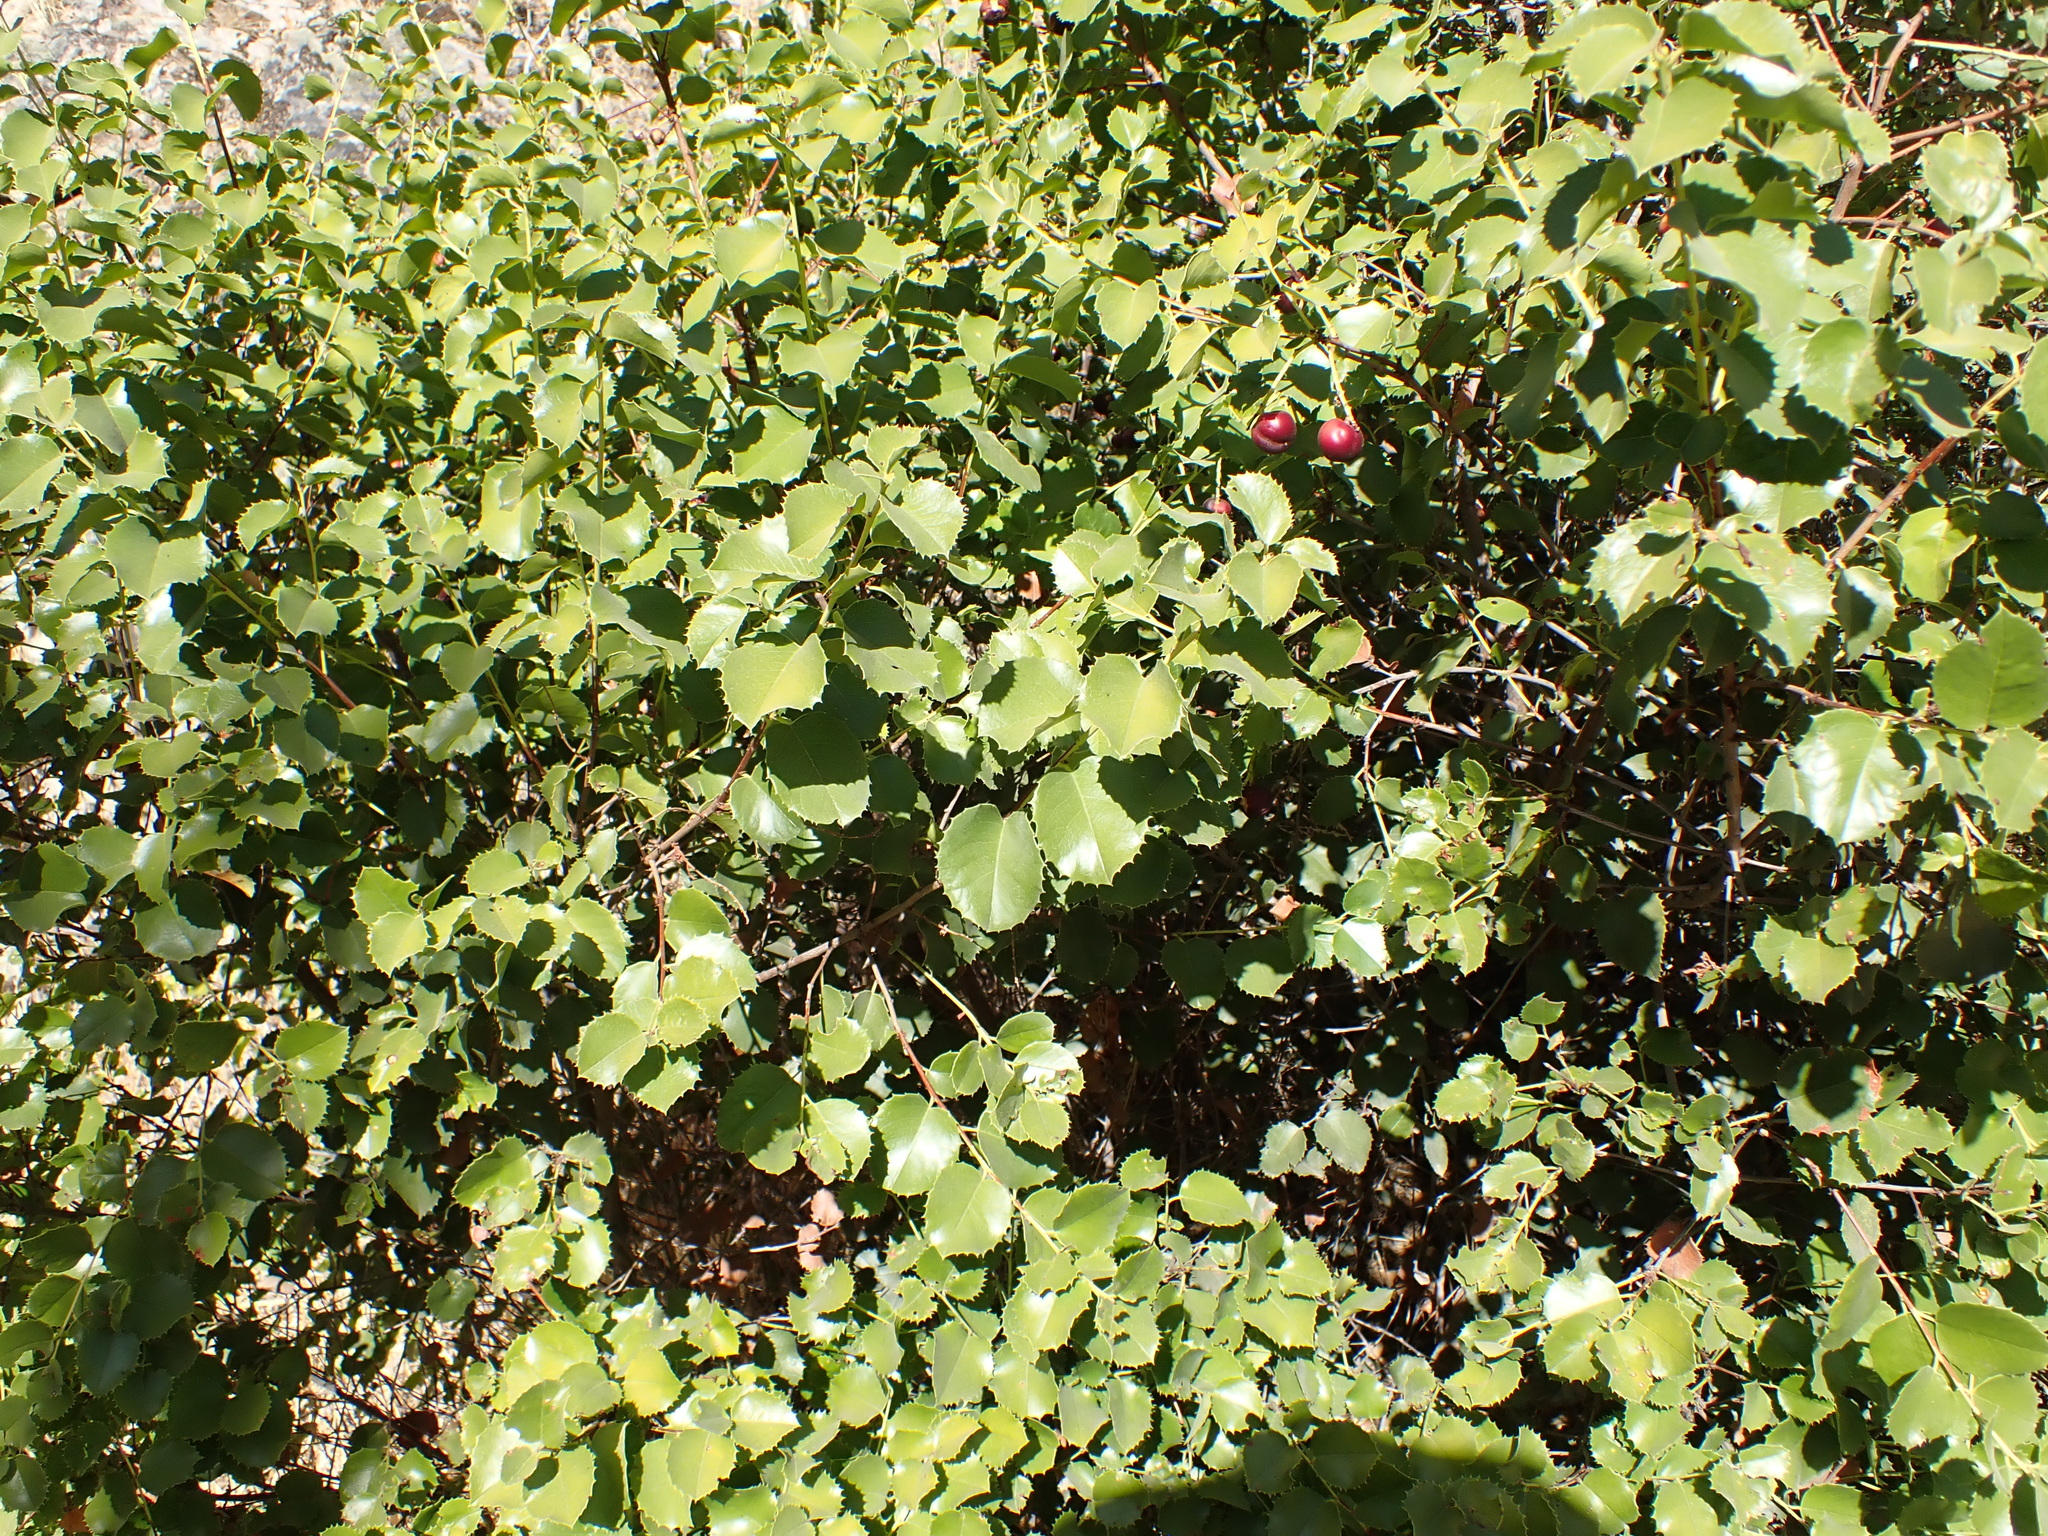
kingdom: Plantae
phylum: Tracheophyta
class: Magnoliopsida
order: Rosales
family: Rosaceae
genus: Prunus
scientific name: Prunus ilicifolia
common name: Hollyleaf cherry
